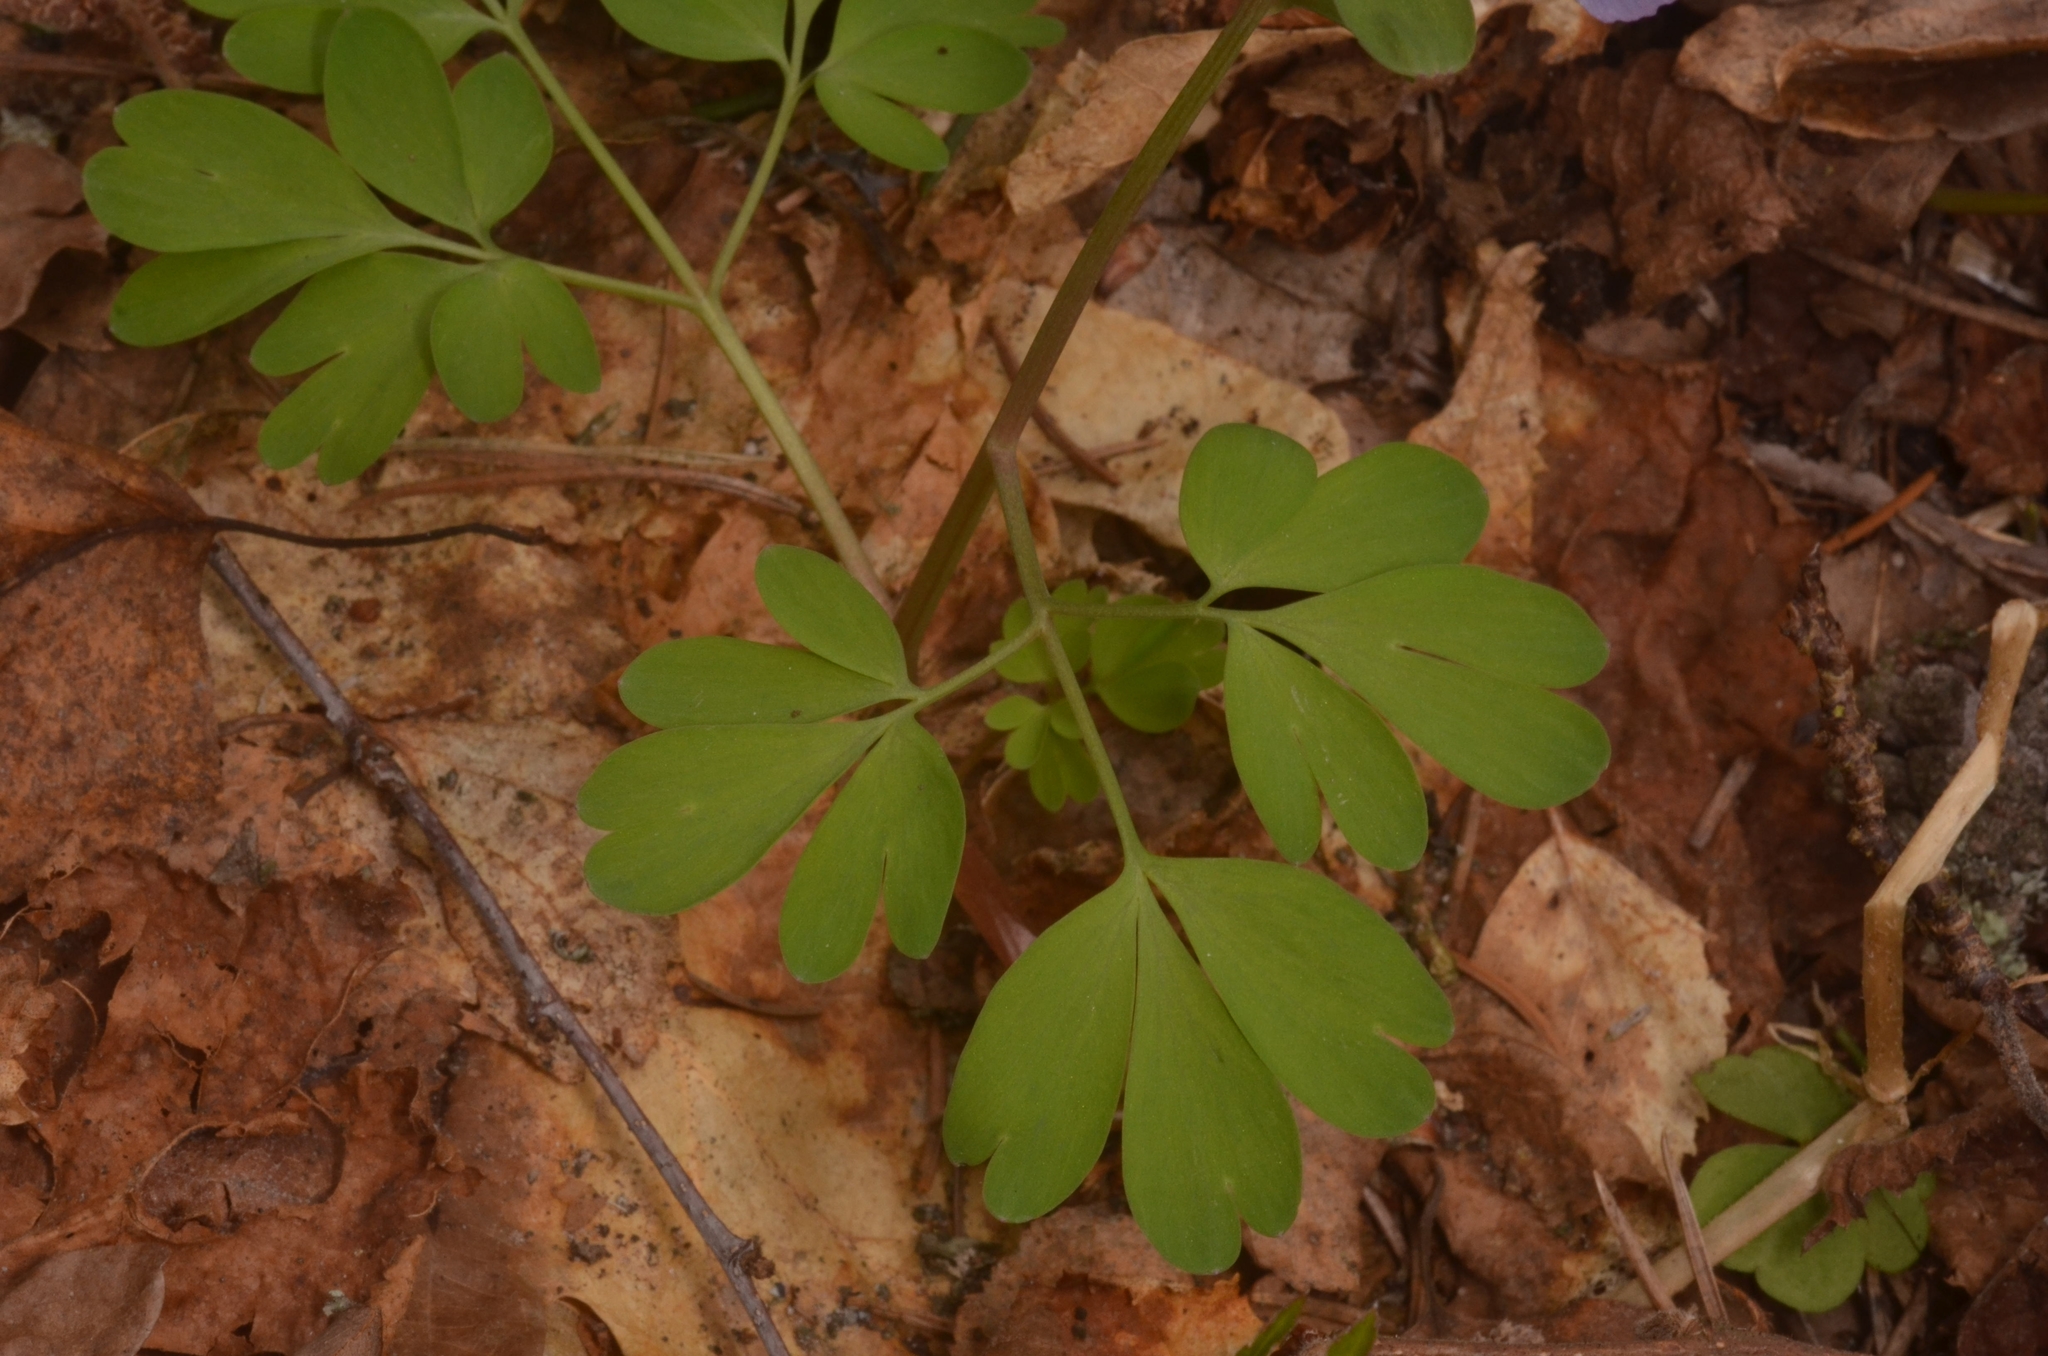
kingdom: Plantae
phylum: Tracheophyta
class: Magnoliopsida
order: Ranunculales
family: Papaveraceae
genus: Corydalis
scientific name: Corydalis solida
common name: Bird-in-a-bush
